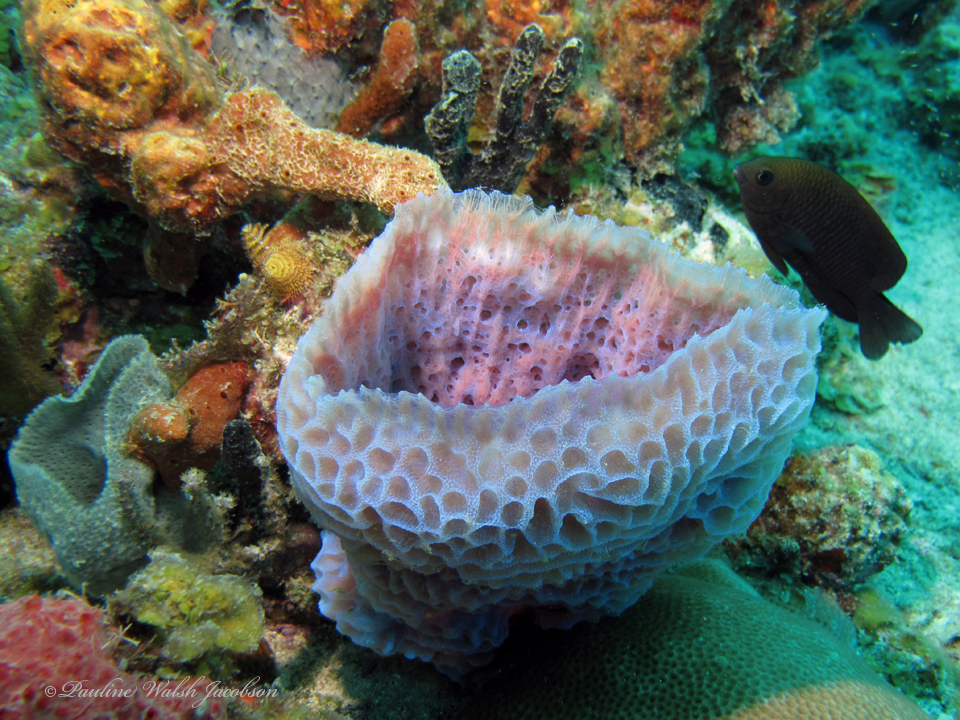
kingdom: Animalia
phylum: Porifera
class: Demospongiae
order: Haplosclerida
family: Callyspongiidae
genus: Callyspongia
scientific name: Callyspongia plicifera
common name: Azure vase sponge
